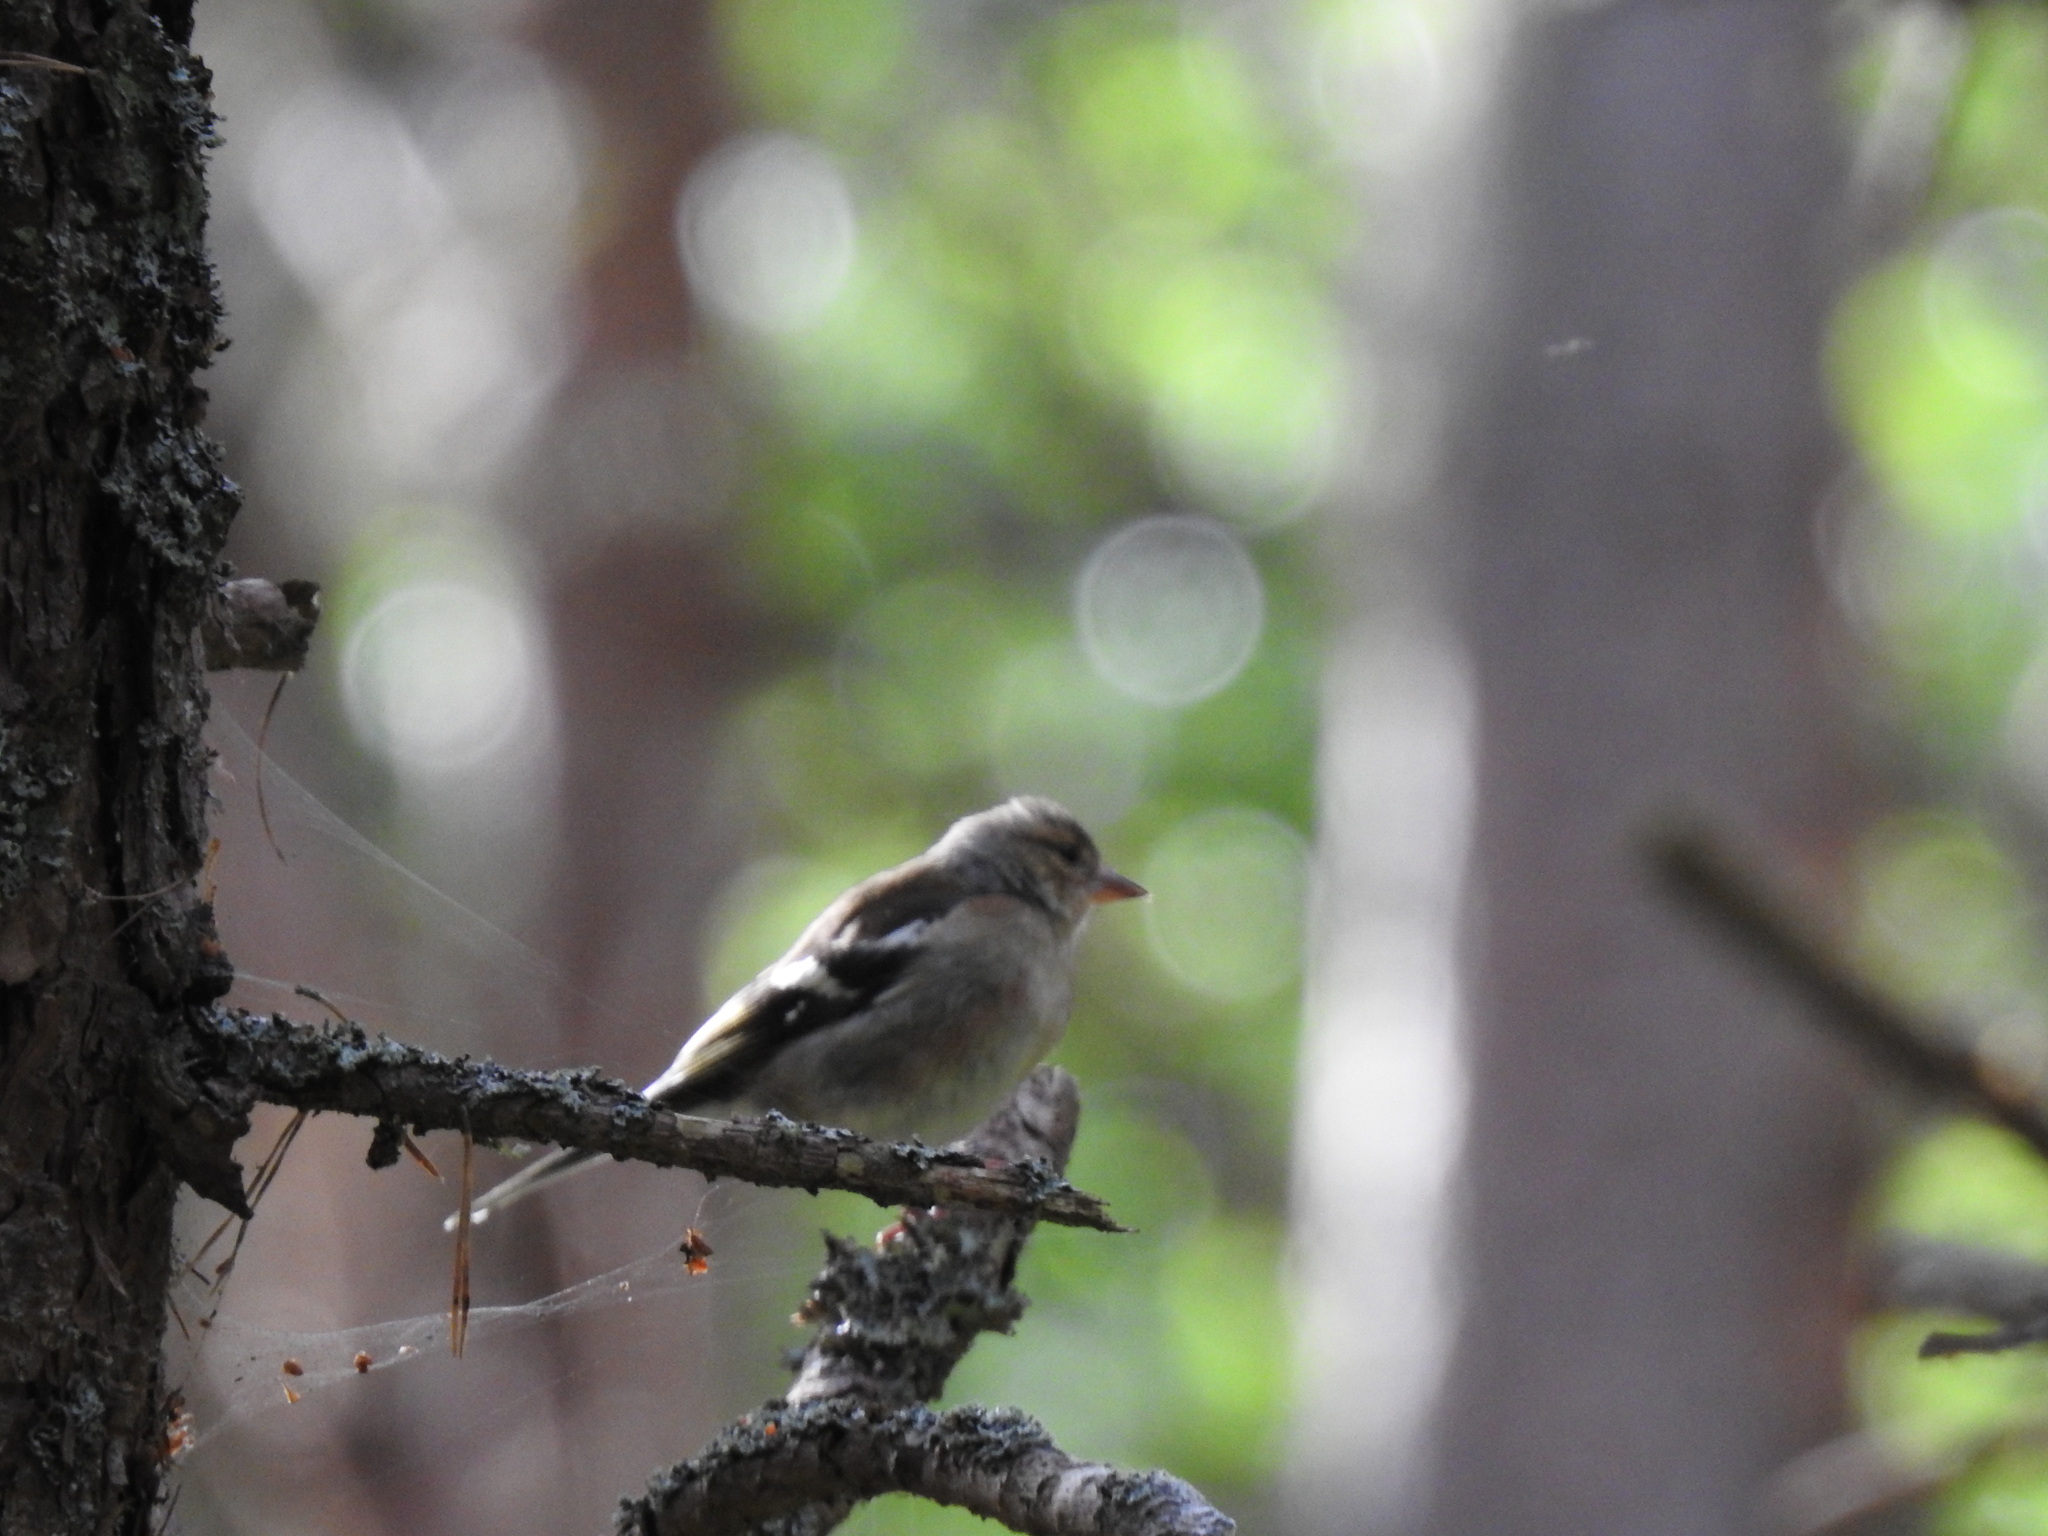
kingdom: Animalia
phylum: Chordata
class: Aves
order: Passeriformes
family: Fringillidae
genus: Fringilla
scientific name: Fringilla coelebs
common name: Common chaffinch
